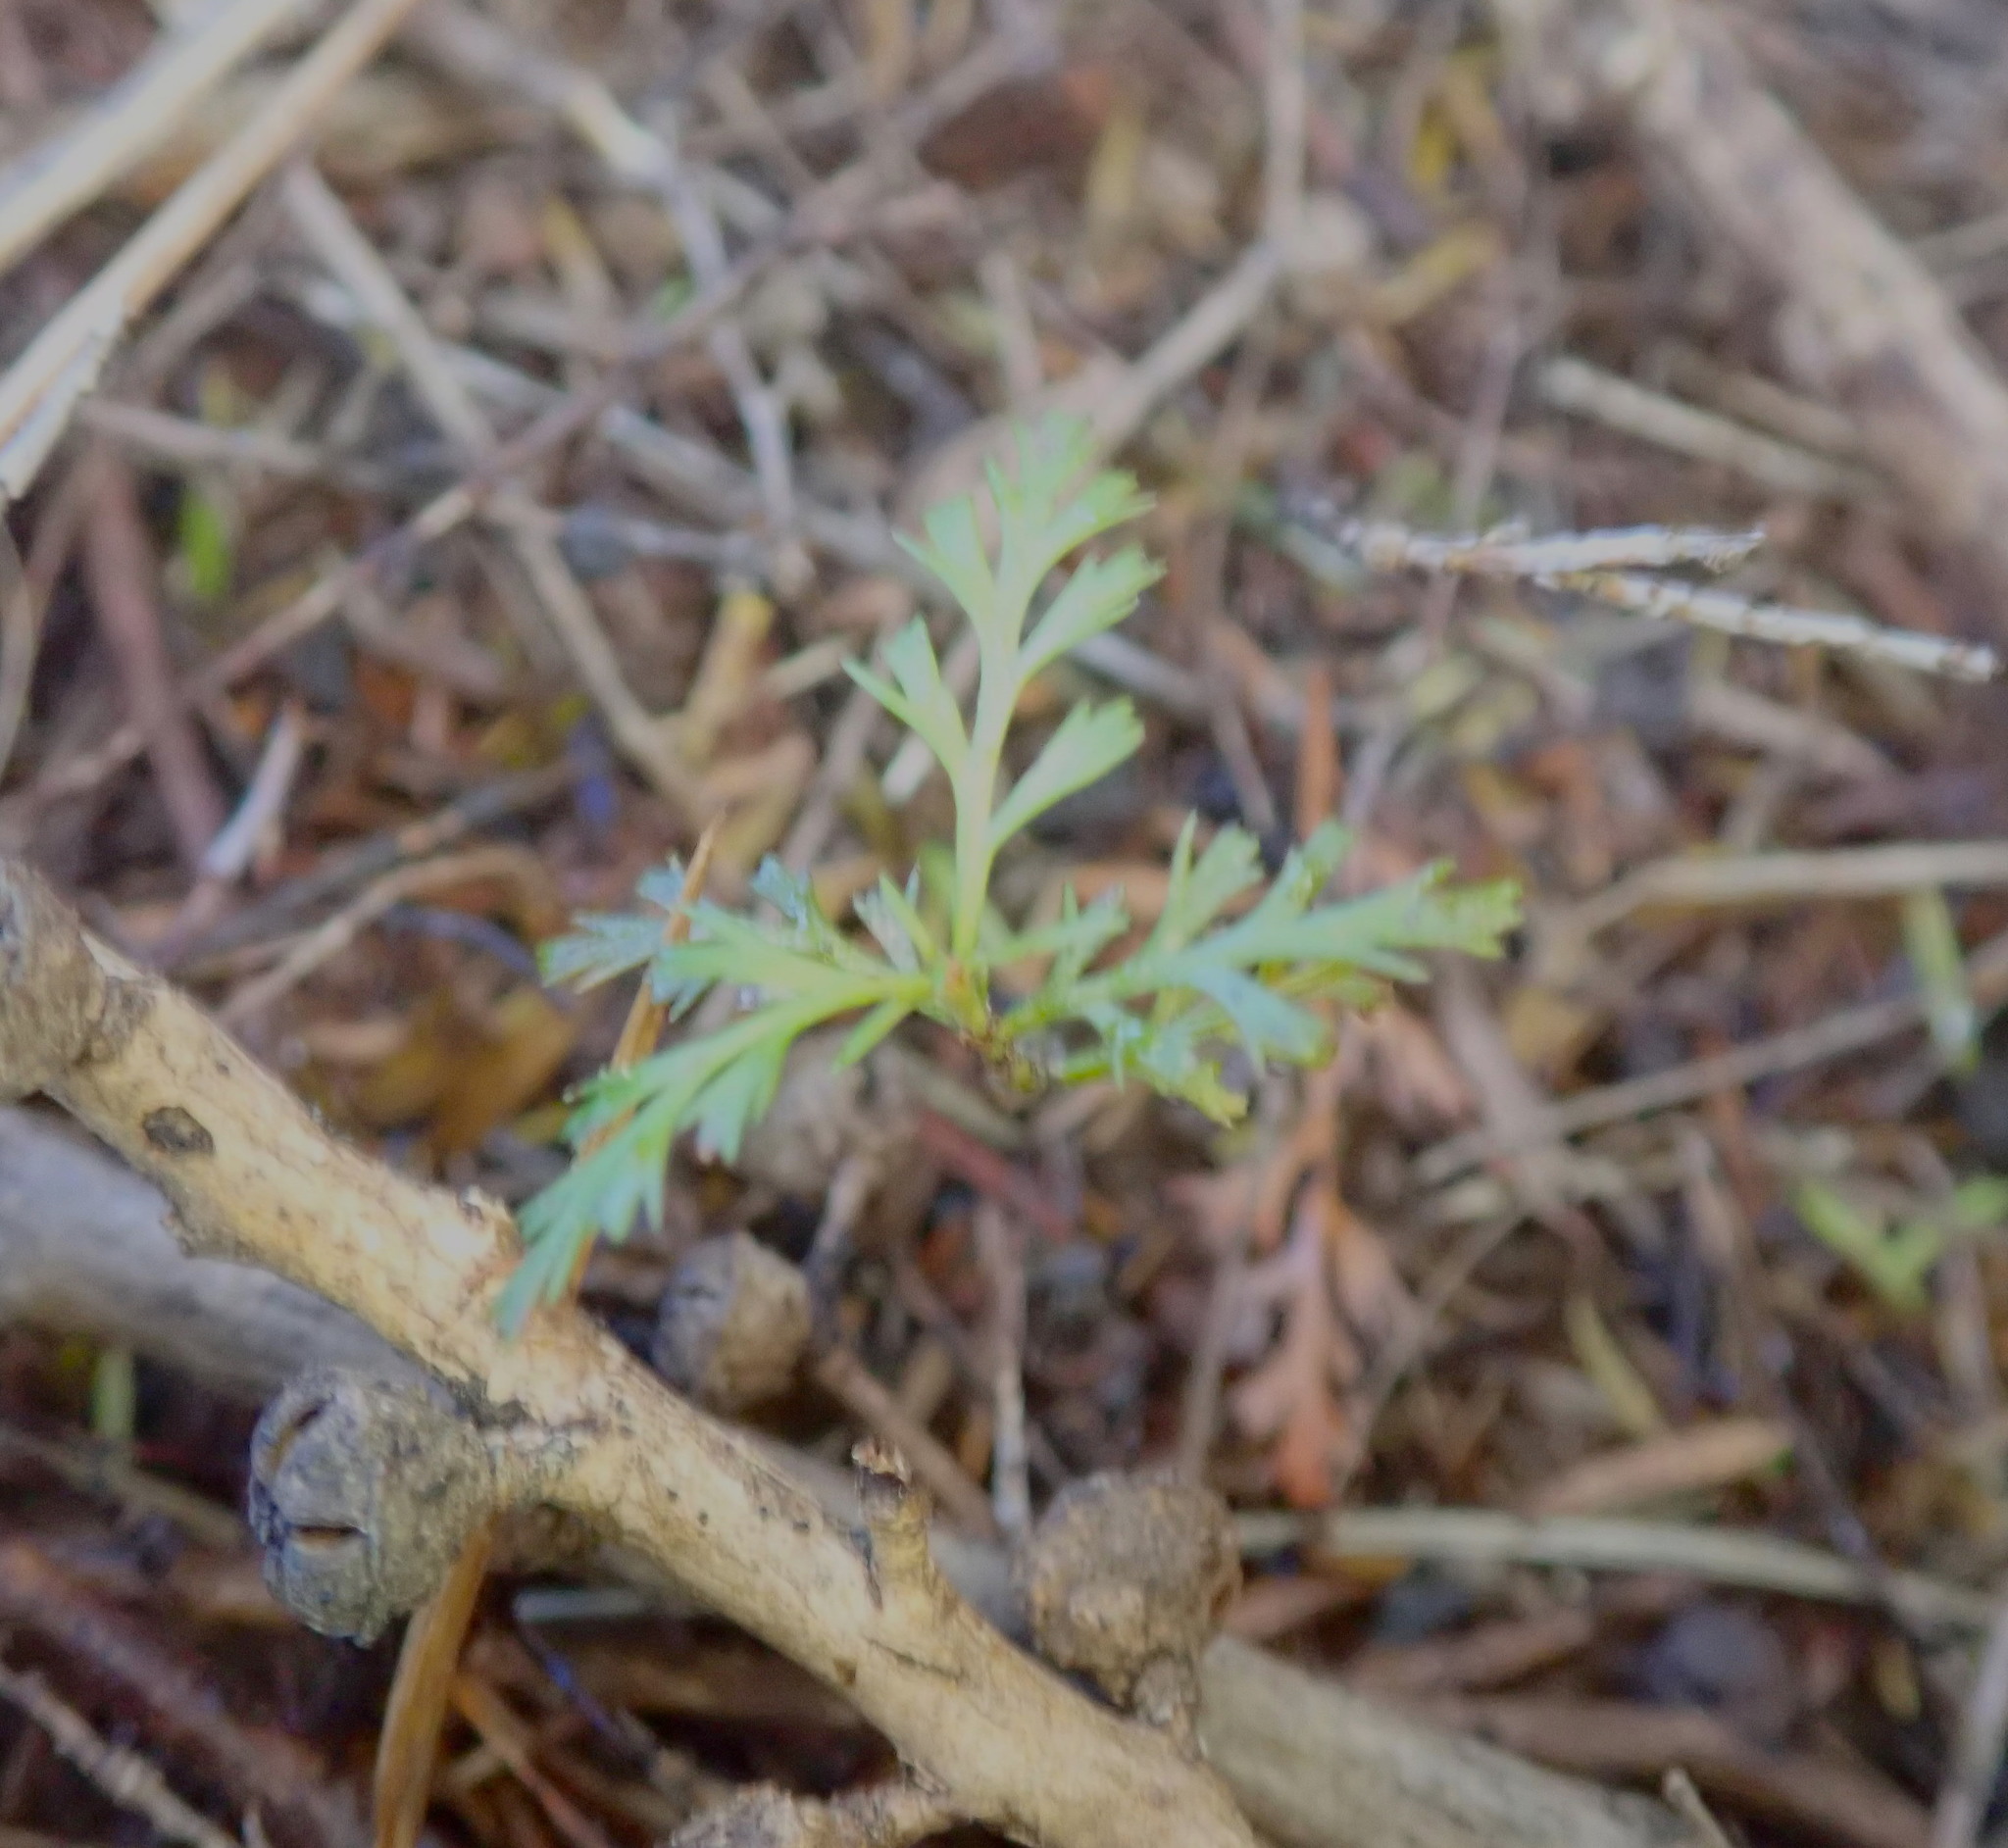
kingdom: Plantae
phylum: Tracheophyta
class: Pinopsida
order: Pinales
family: Phyllocladaceae
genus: Phyllocladus
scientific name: Phyllocladus trichomanoides
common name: Celery pine
